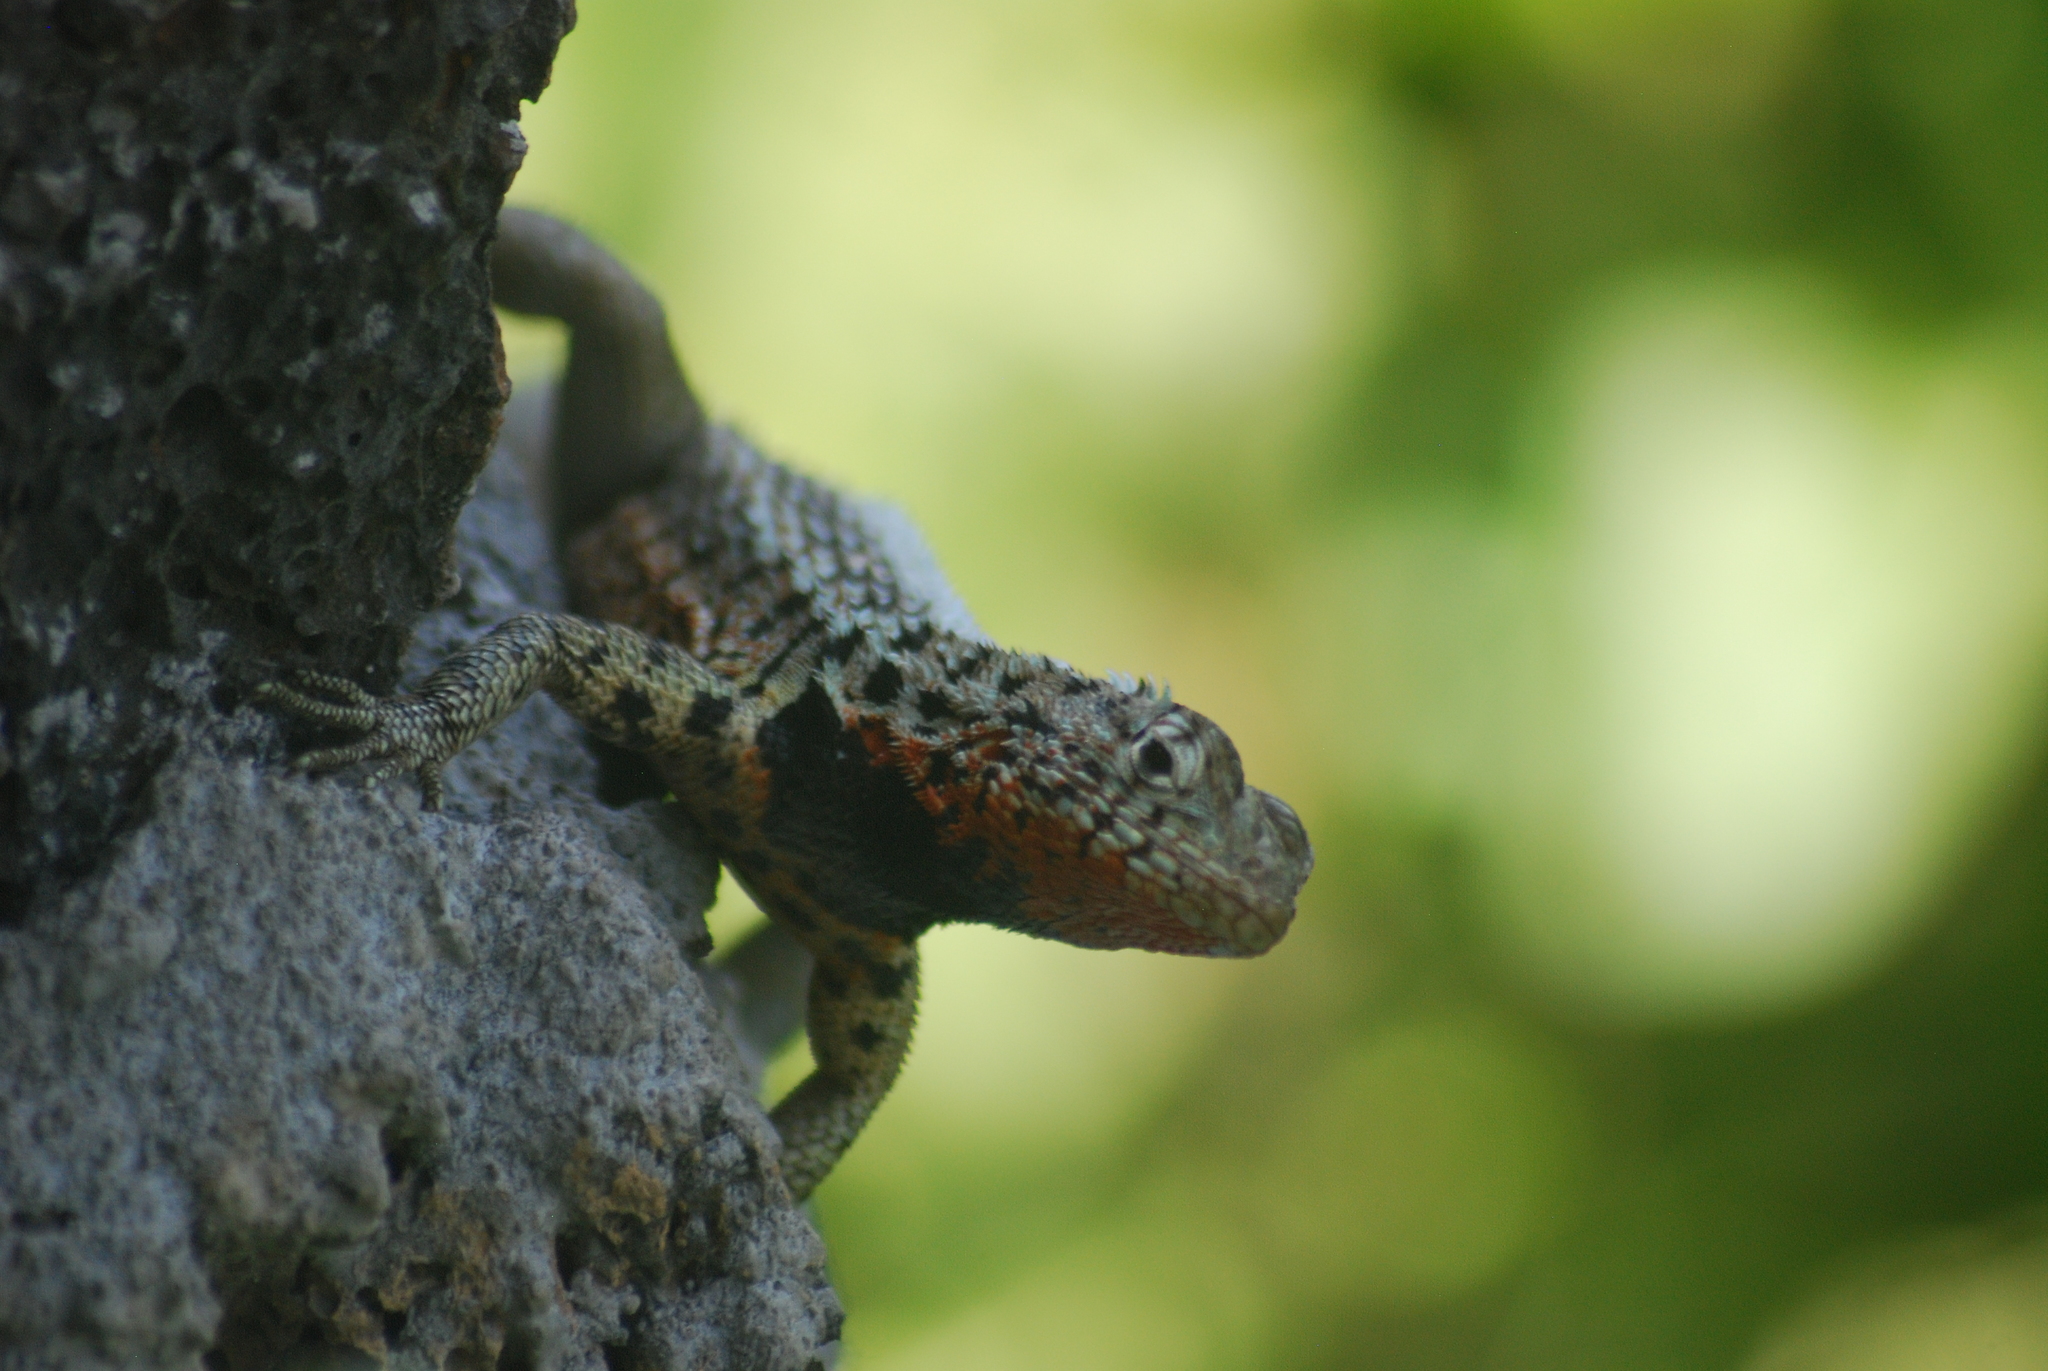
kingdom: Animalia
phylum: Chordata
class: Squamata
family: Tropiduridae
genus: Microlophus
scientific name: Microlophus indefatigabilis
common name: Galapagos lava lizard
